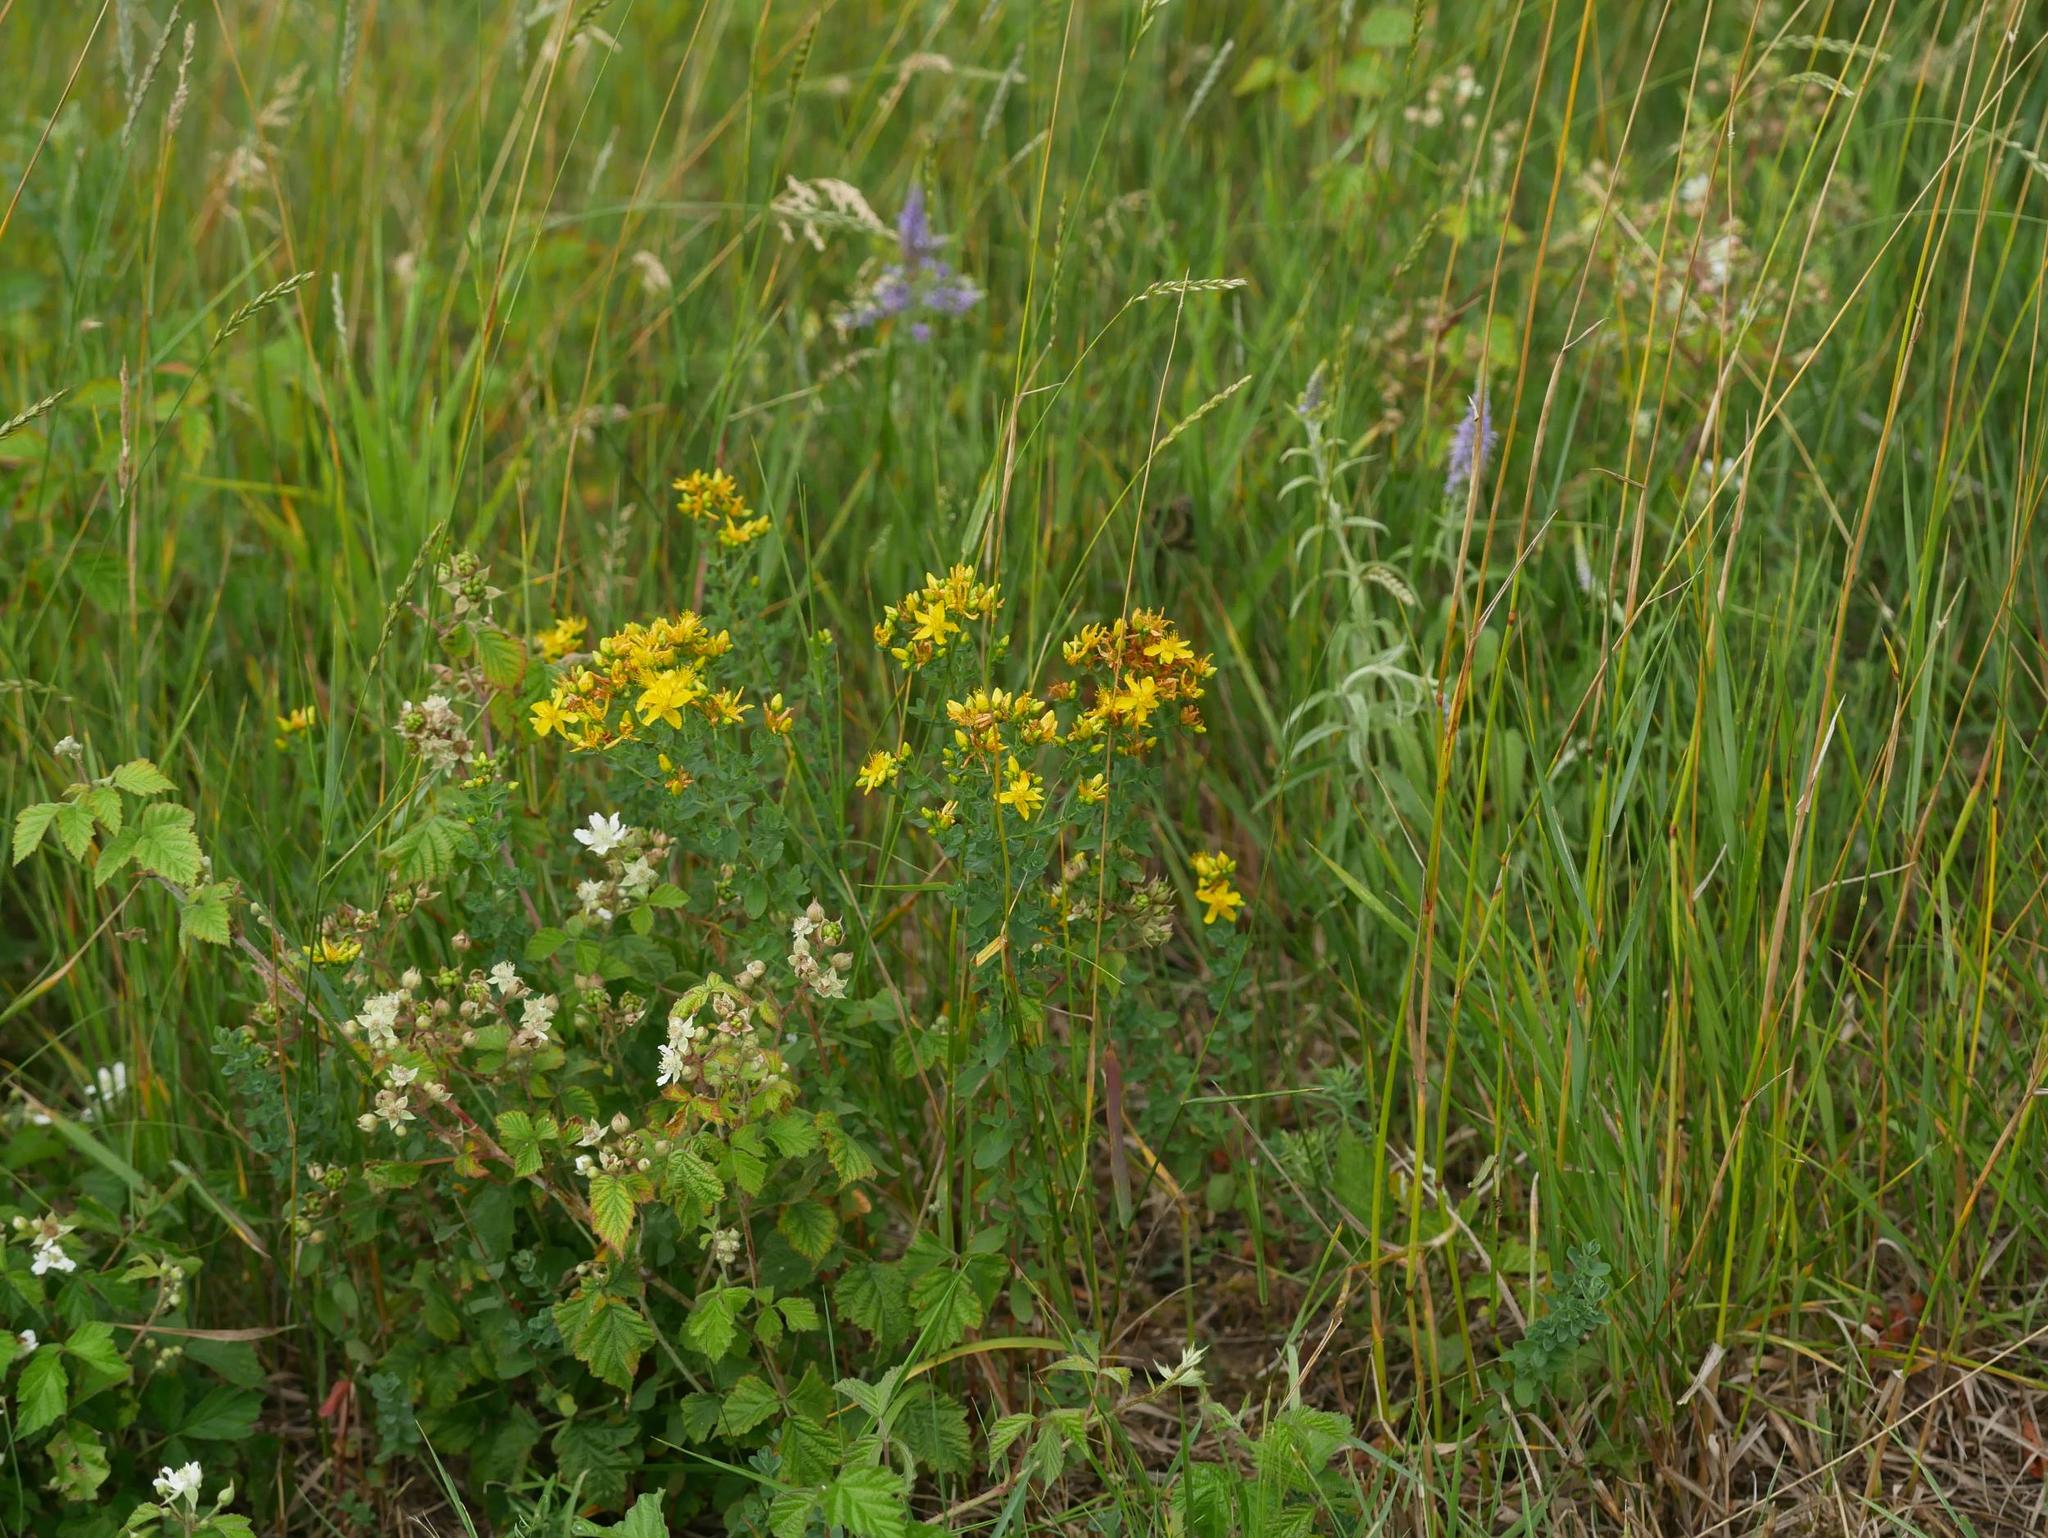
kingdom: Plantae
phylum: Tracheophyta
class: Magnoliopsida
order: Malpighiales
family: Hypericaceae
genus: Hypericum
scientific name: Hypericum perforatum
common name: Common st. johnswort
